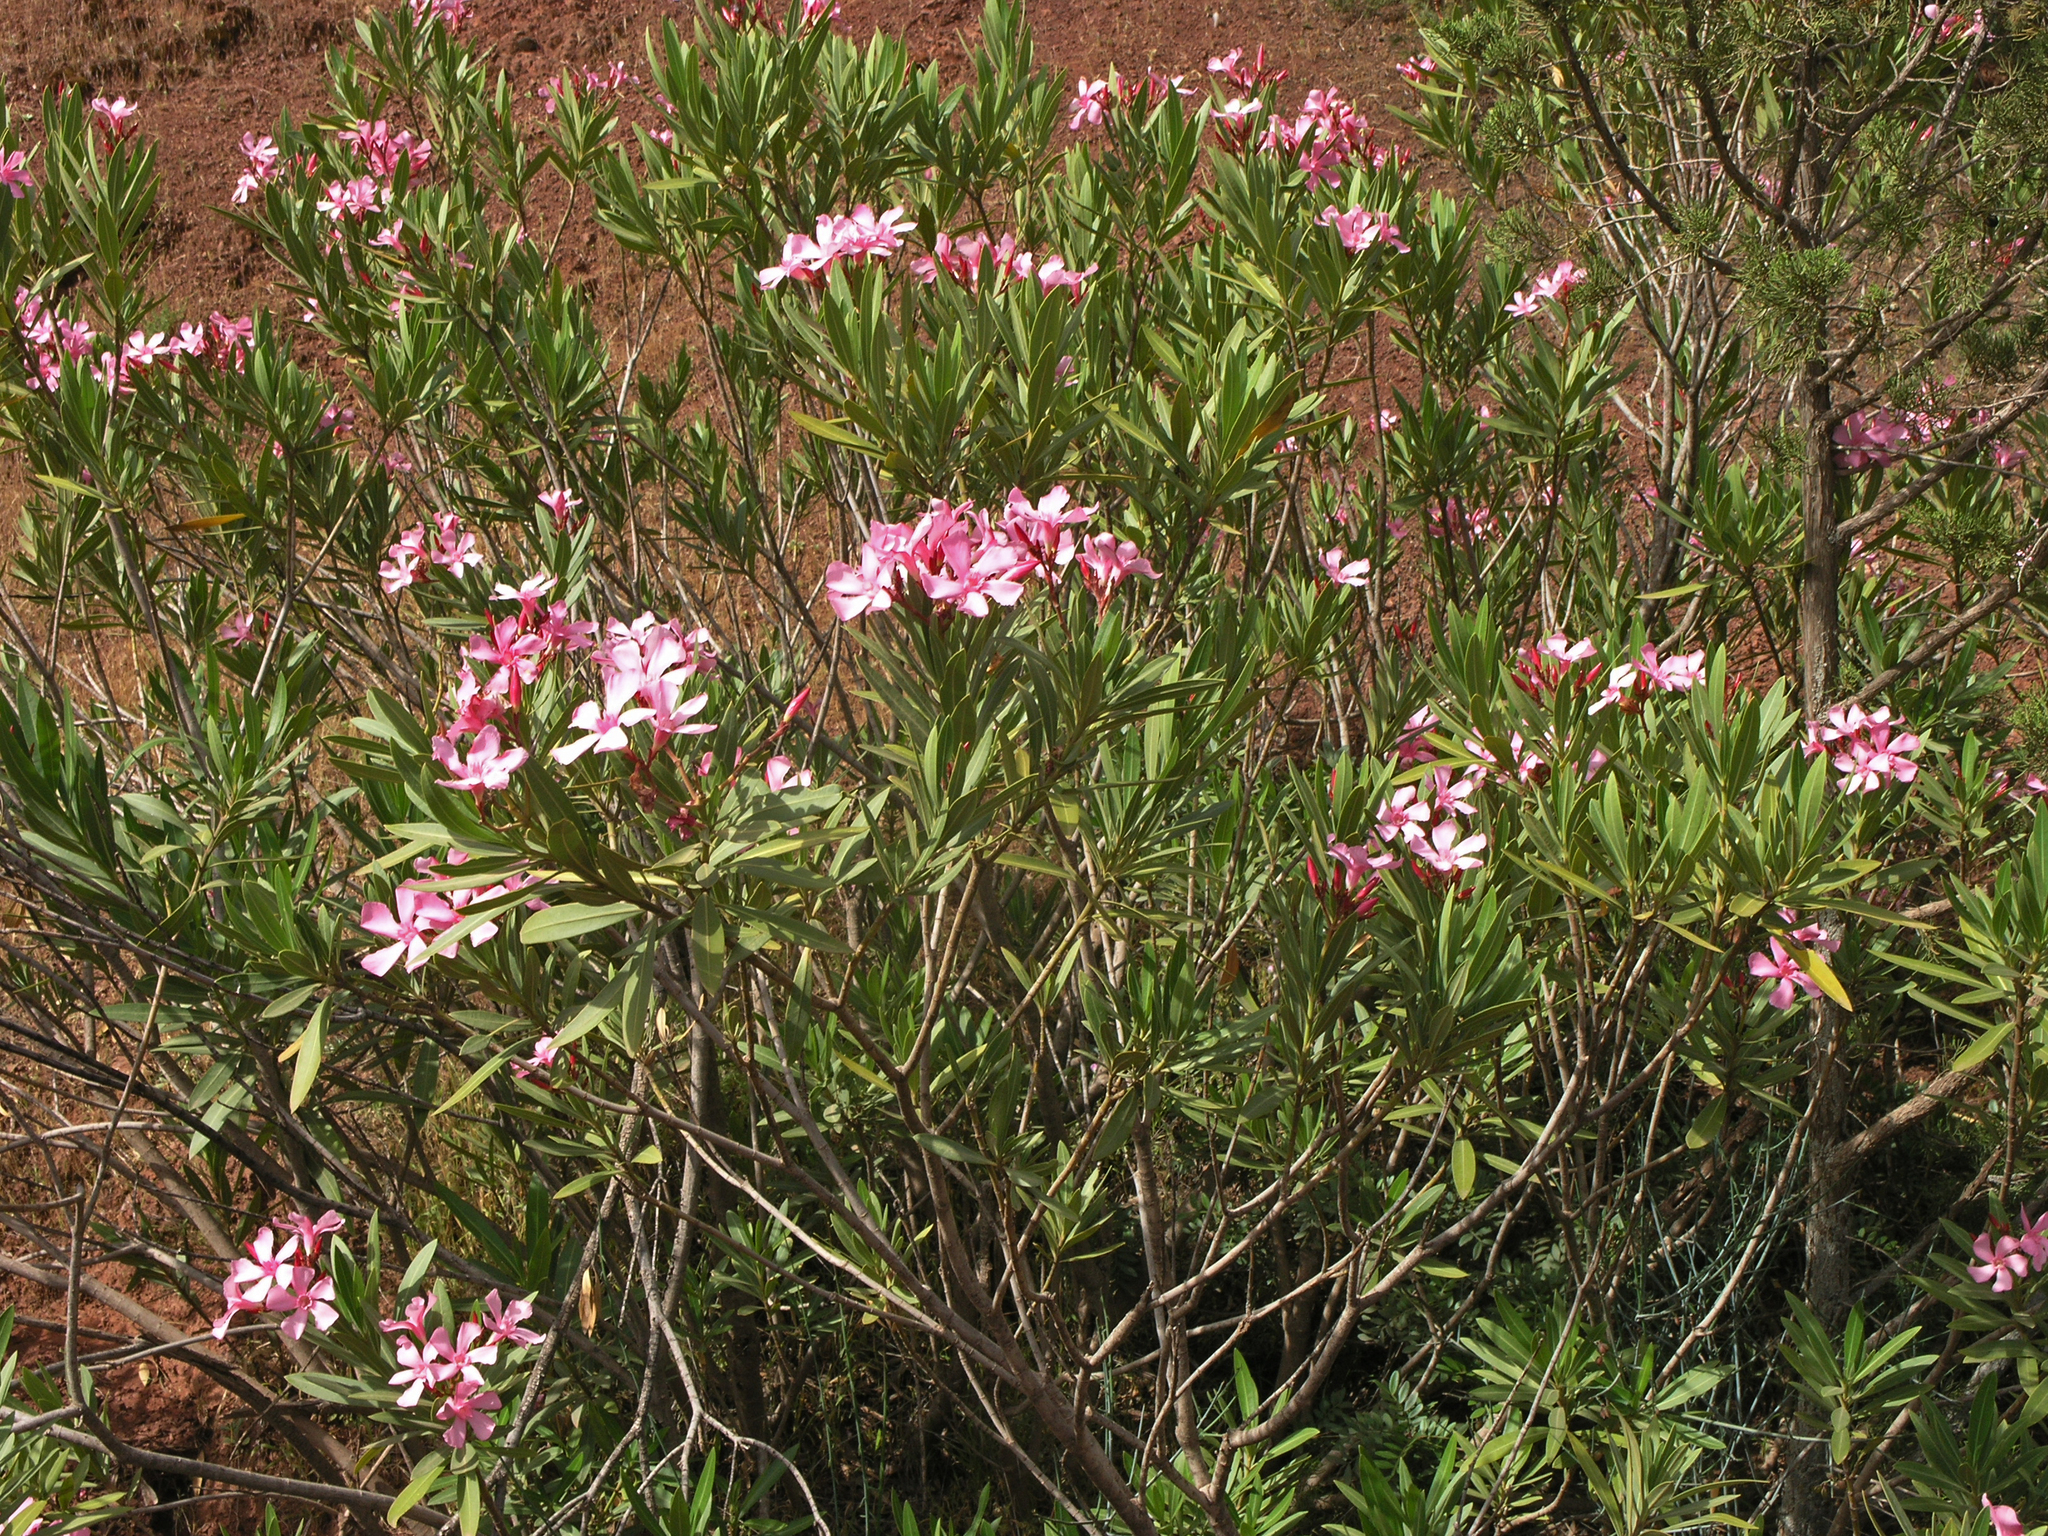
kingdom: Plantae
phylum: Tracheophyta
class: Magnoliopsida
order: Gentianales
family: Apocynaceae
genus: Nerium
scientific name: Nerium oleander
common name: Oleander
